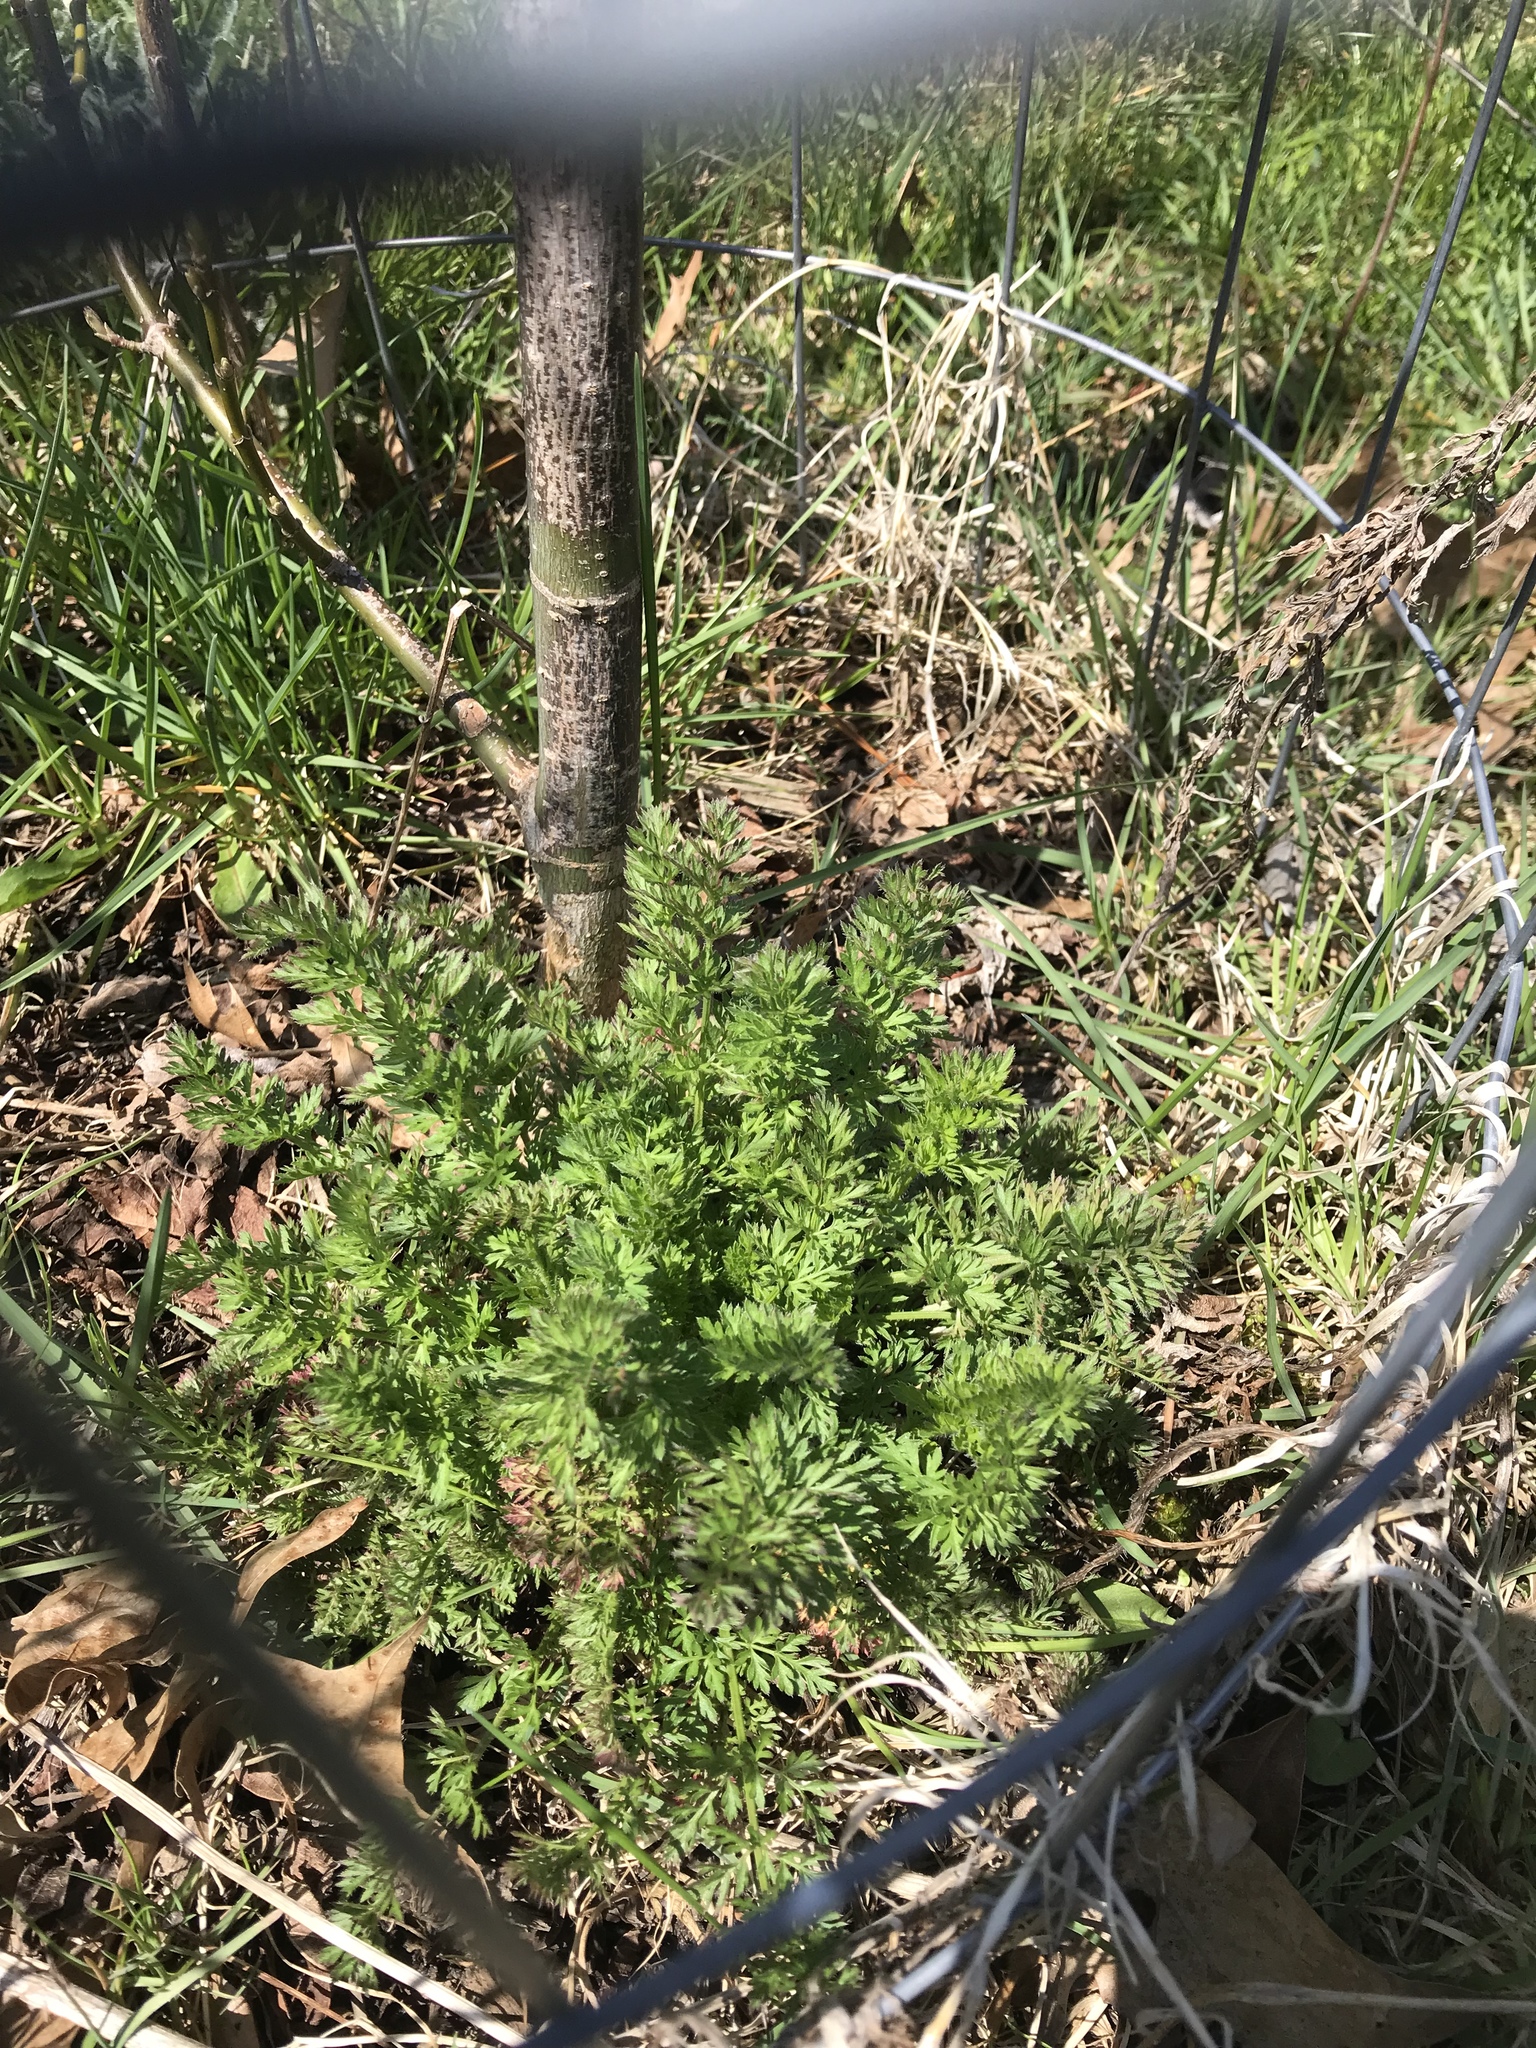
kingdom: Plantae
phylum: Tracheophyta
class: Magnoliopsida
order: Apiales
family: Apiaceae
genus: Daucus
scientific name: Daucus carota
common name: Wild carrot
